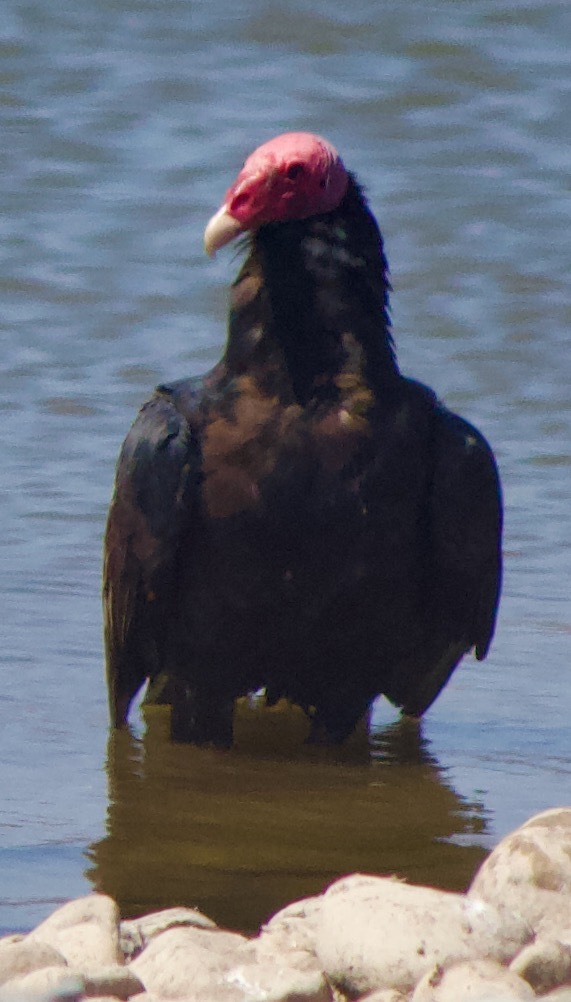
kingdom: Animalia
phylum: Chordata
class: Aves
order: Accipitriformes
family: Cathartidae
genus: Cathartes
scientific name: Cathartes aura
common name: Turkey vulture
